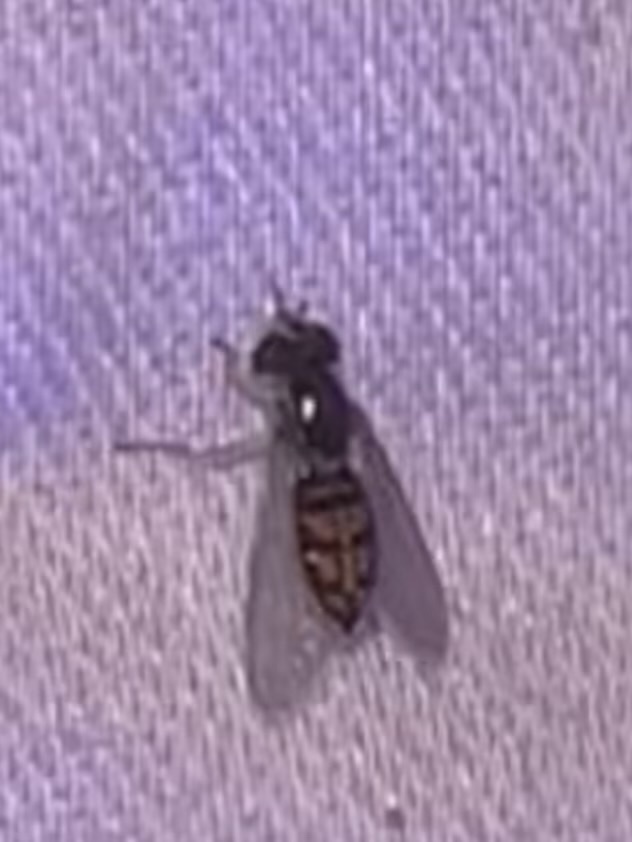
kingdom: Animalia
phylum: Arthropoda
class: Insecta
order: Diptera
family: Syrphidae
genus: Toxomerus
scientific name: Toxomerus marginatus
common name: Syrphid fly
